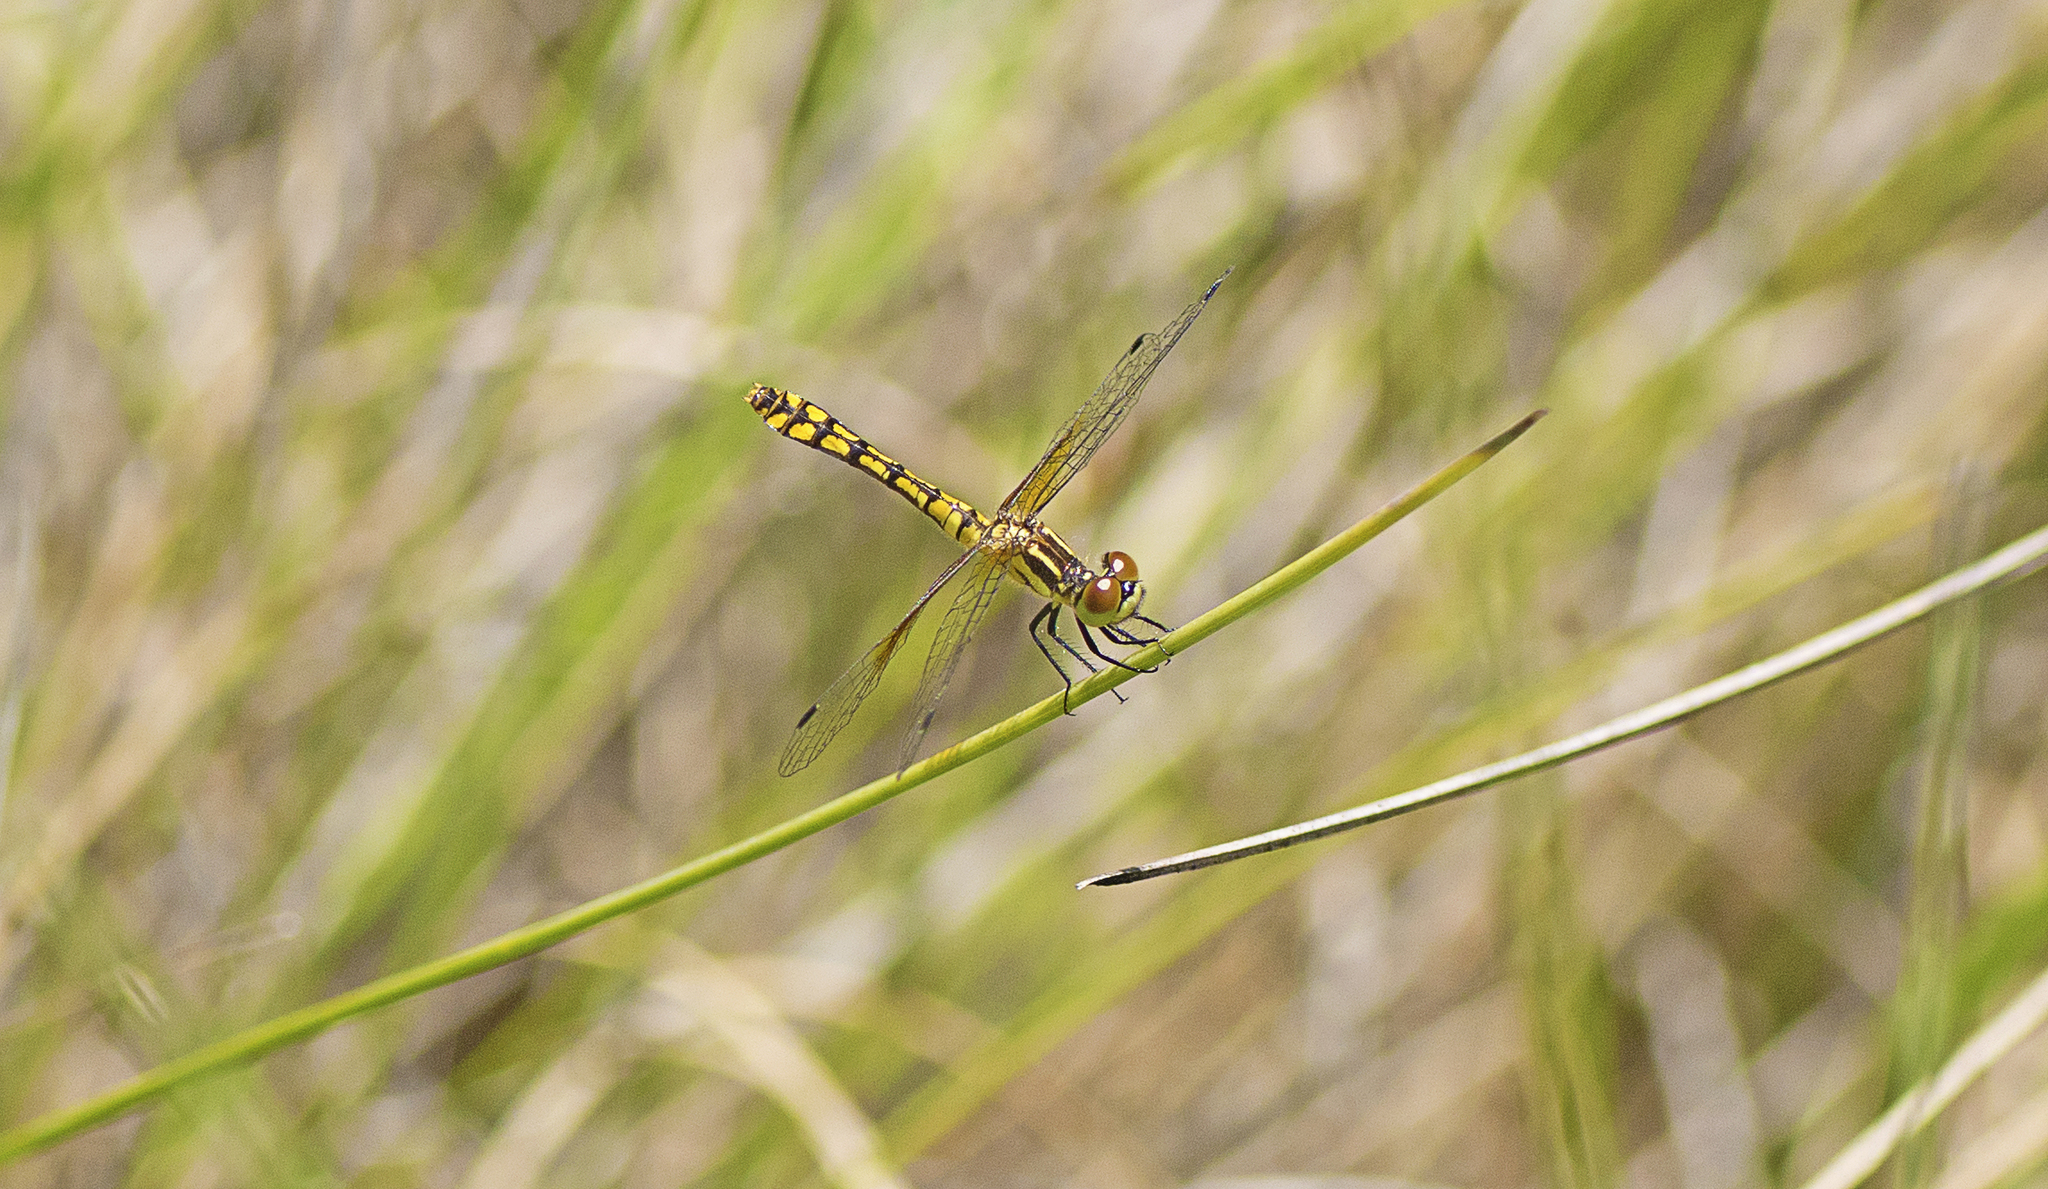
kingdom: Animalia
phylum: Arthropoda
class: Insecta
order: Odonata
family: Libellulidae
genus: Nannophya
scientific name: Nannophya australis
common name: Australian pygmyfly
